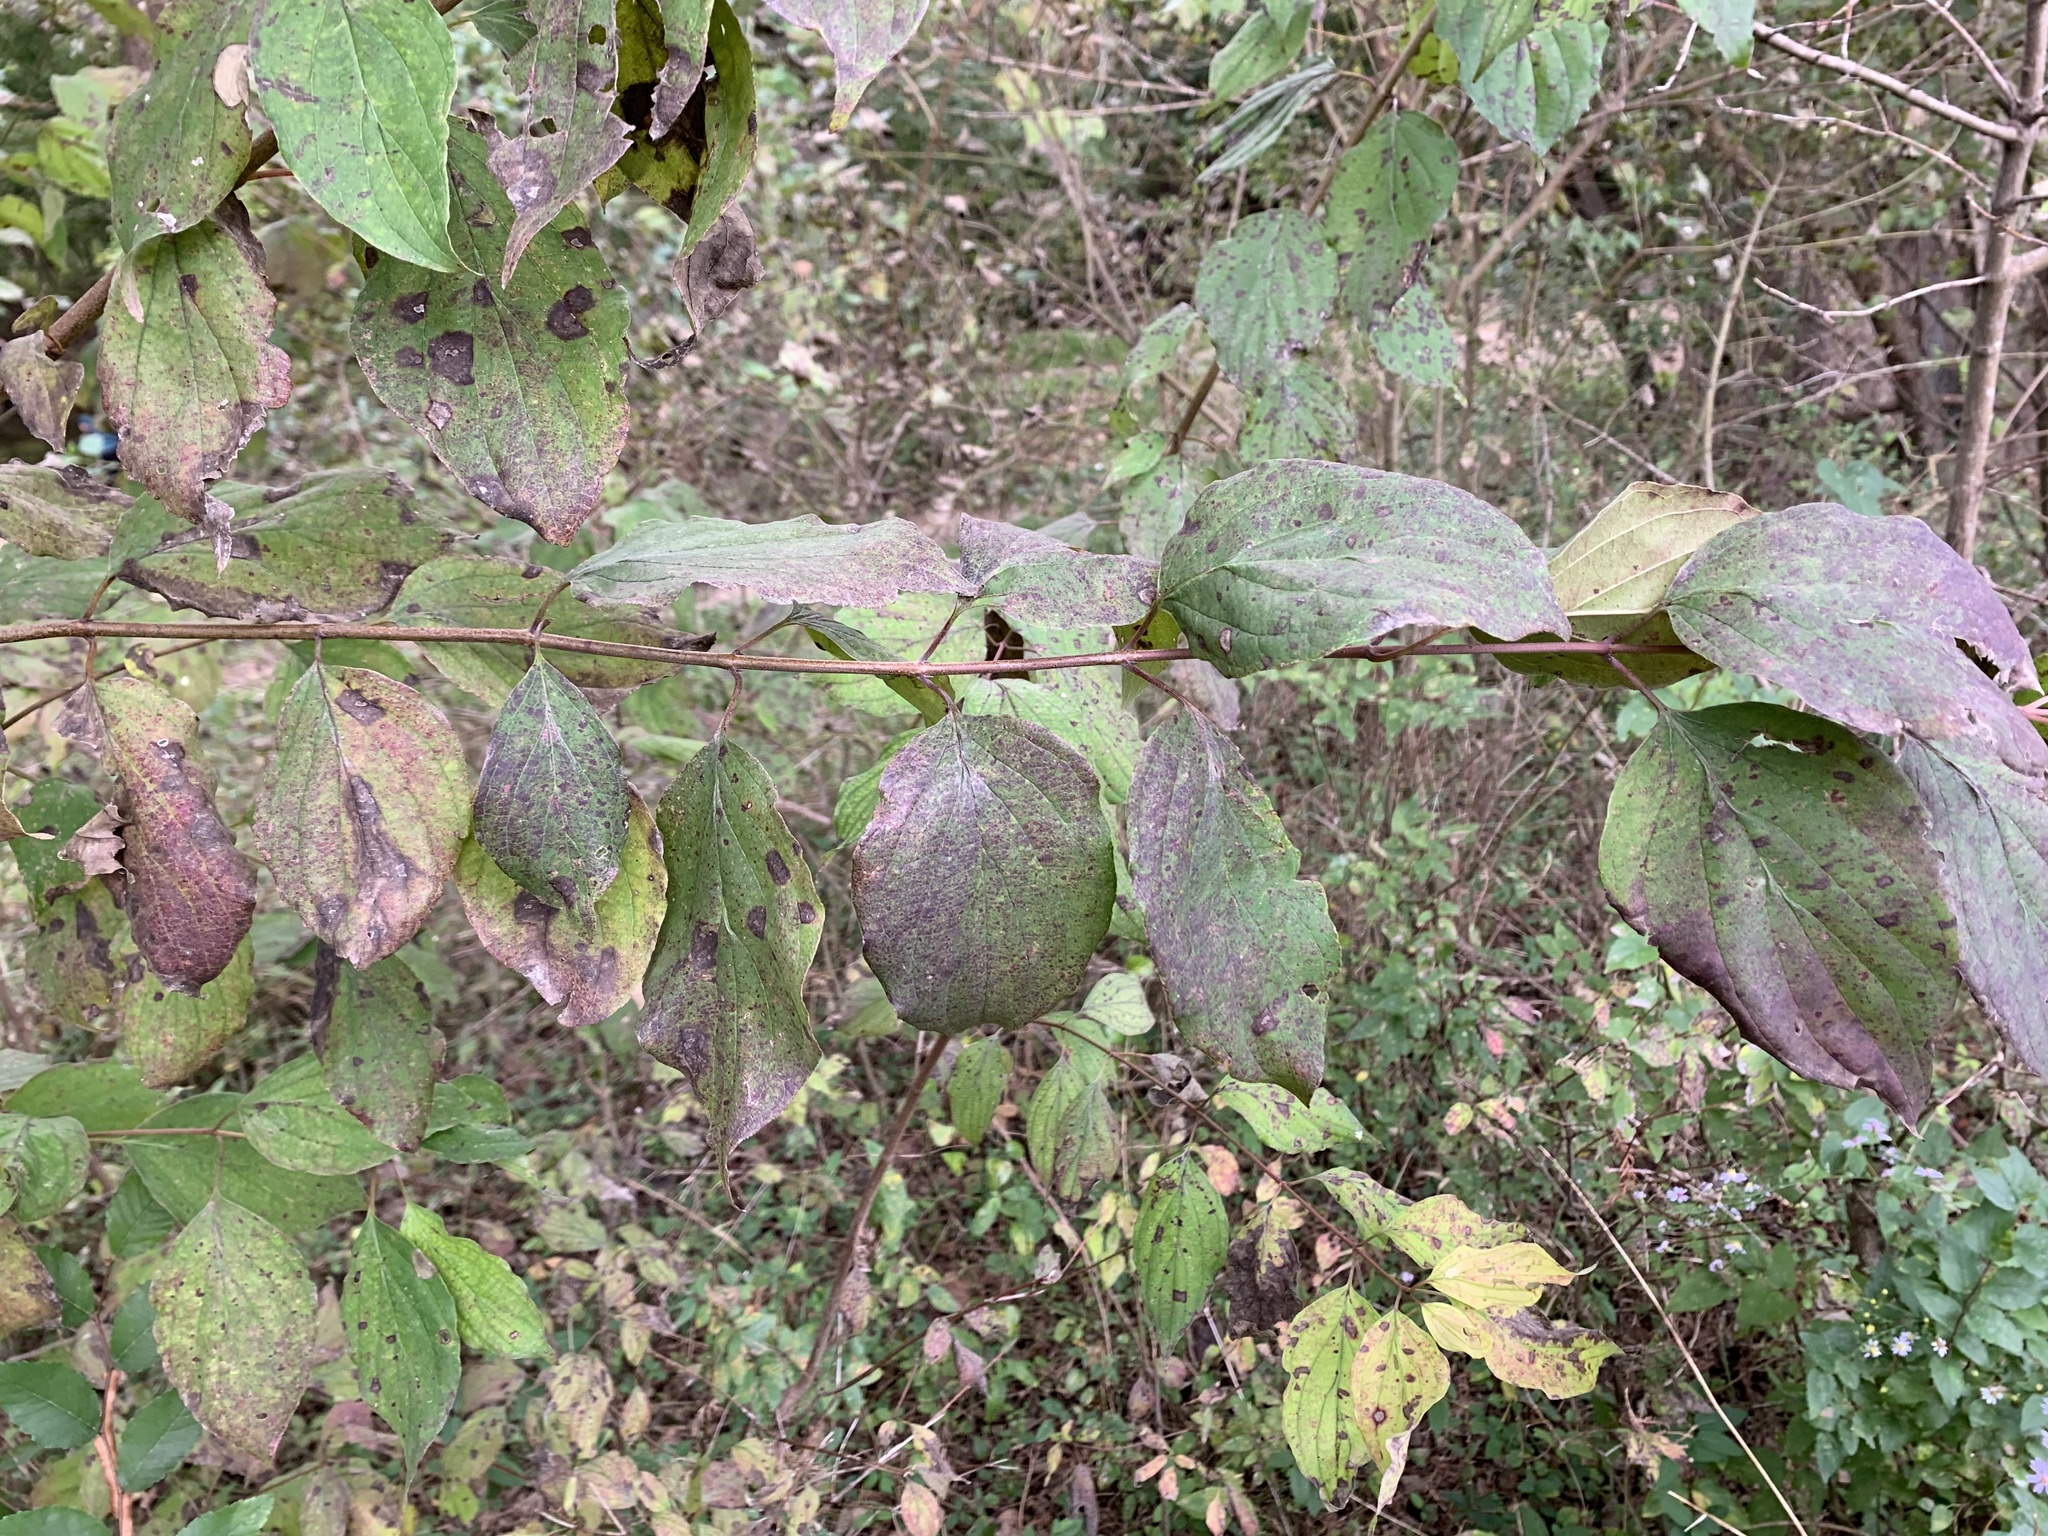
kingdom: Plantae
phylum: Tracheophyta
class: Magnoliopsida
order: Cornales
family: Cornaceae
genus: Cornus
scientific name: Cornus drummondii
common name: Rough-leaf dogwood
